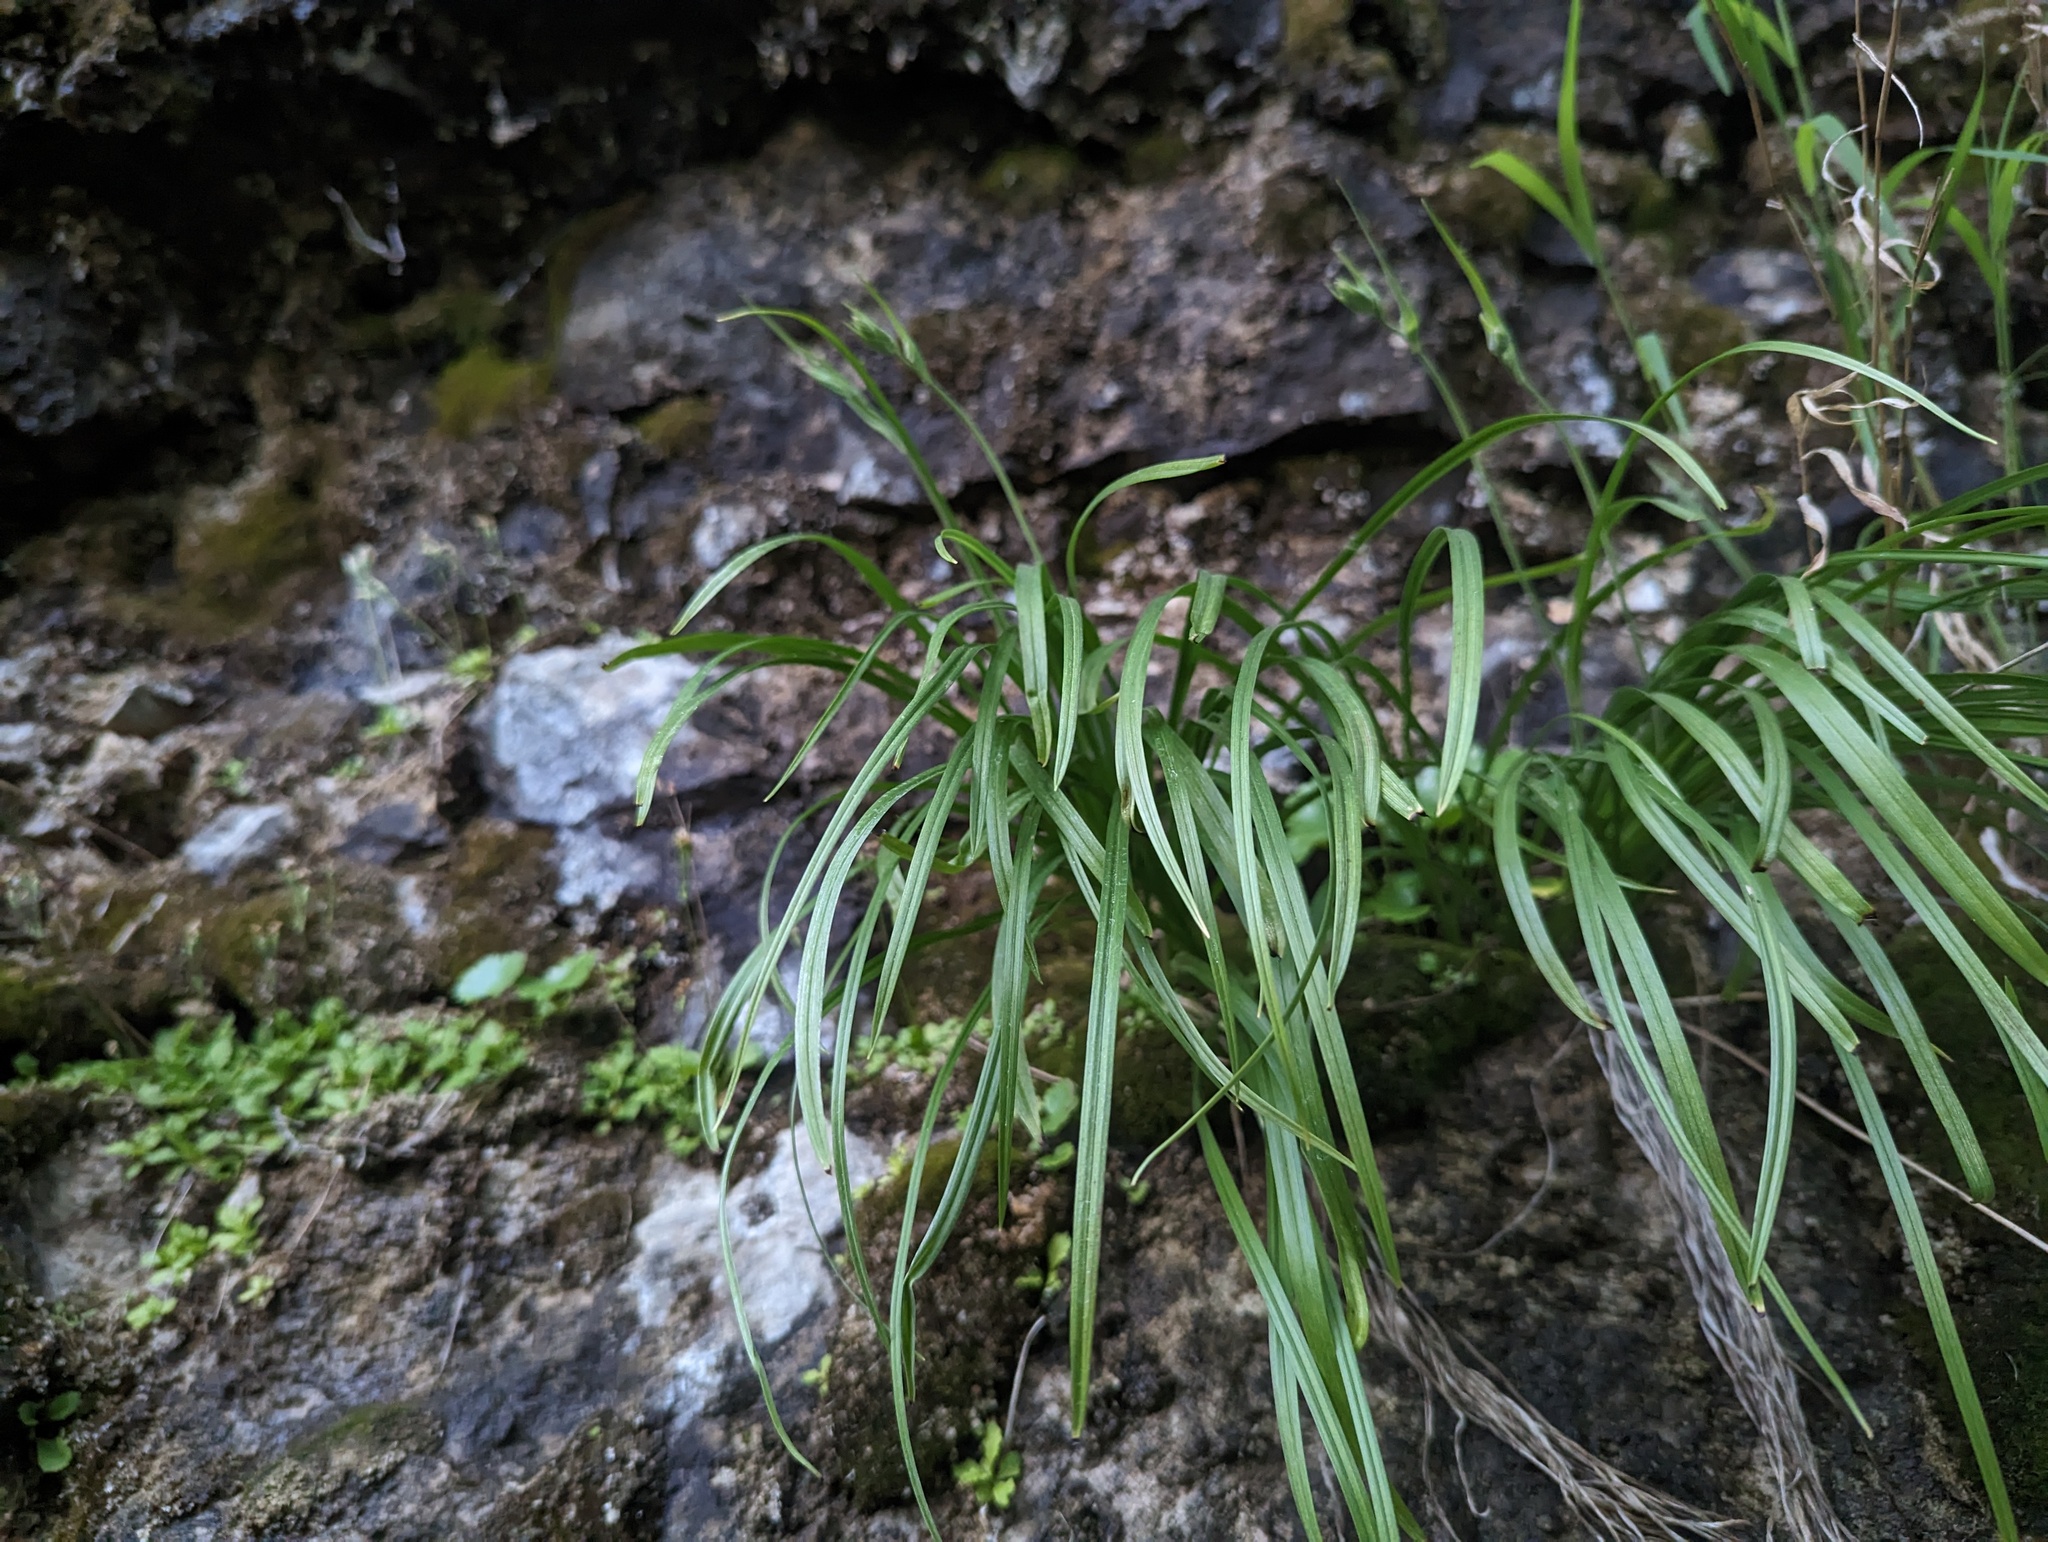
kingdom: Plantae
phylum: Tracheophyta
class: Liliopsida
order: Liliales
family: Melanthiaceae
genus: Anticlea
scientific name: Anticlea elegans
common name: Mountain death camas
